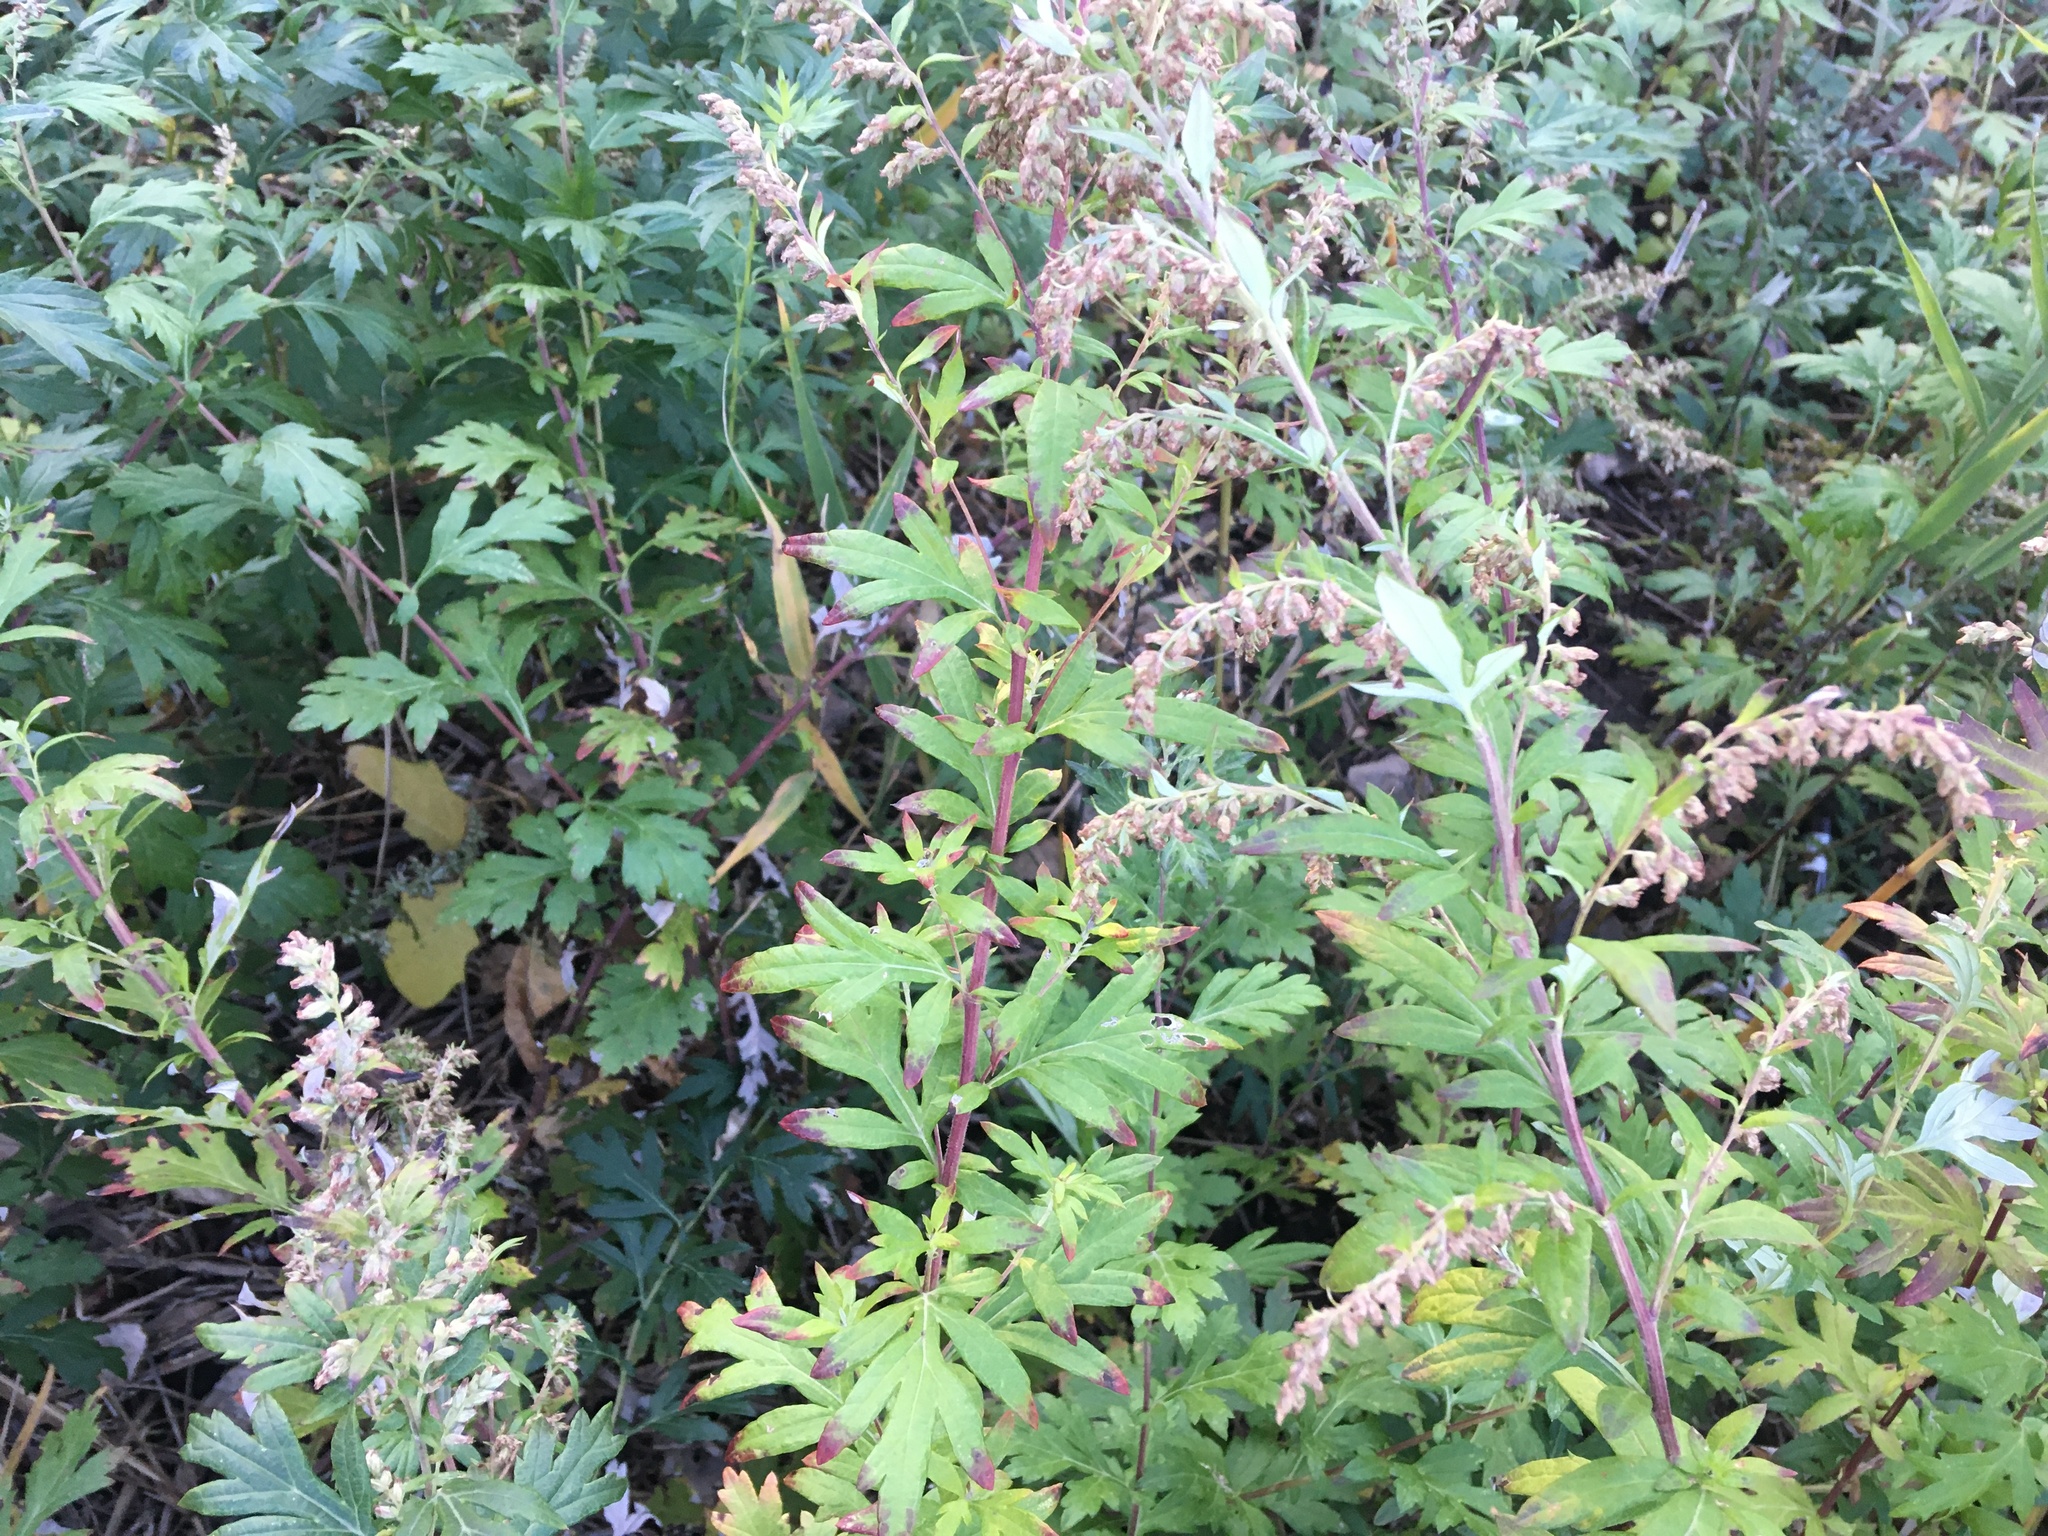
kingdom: Plantae
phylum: Tracheophyta
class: Magnoliopsida
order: Asterales
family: Asteraceae
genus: Artemisia
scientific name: Artemisia vulgaris
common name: Mugwort
